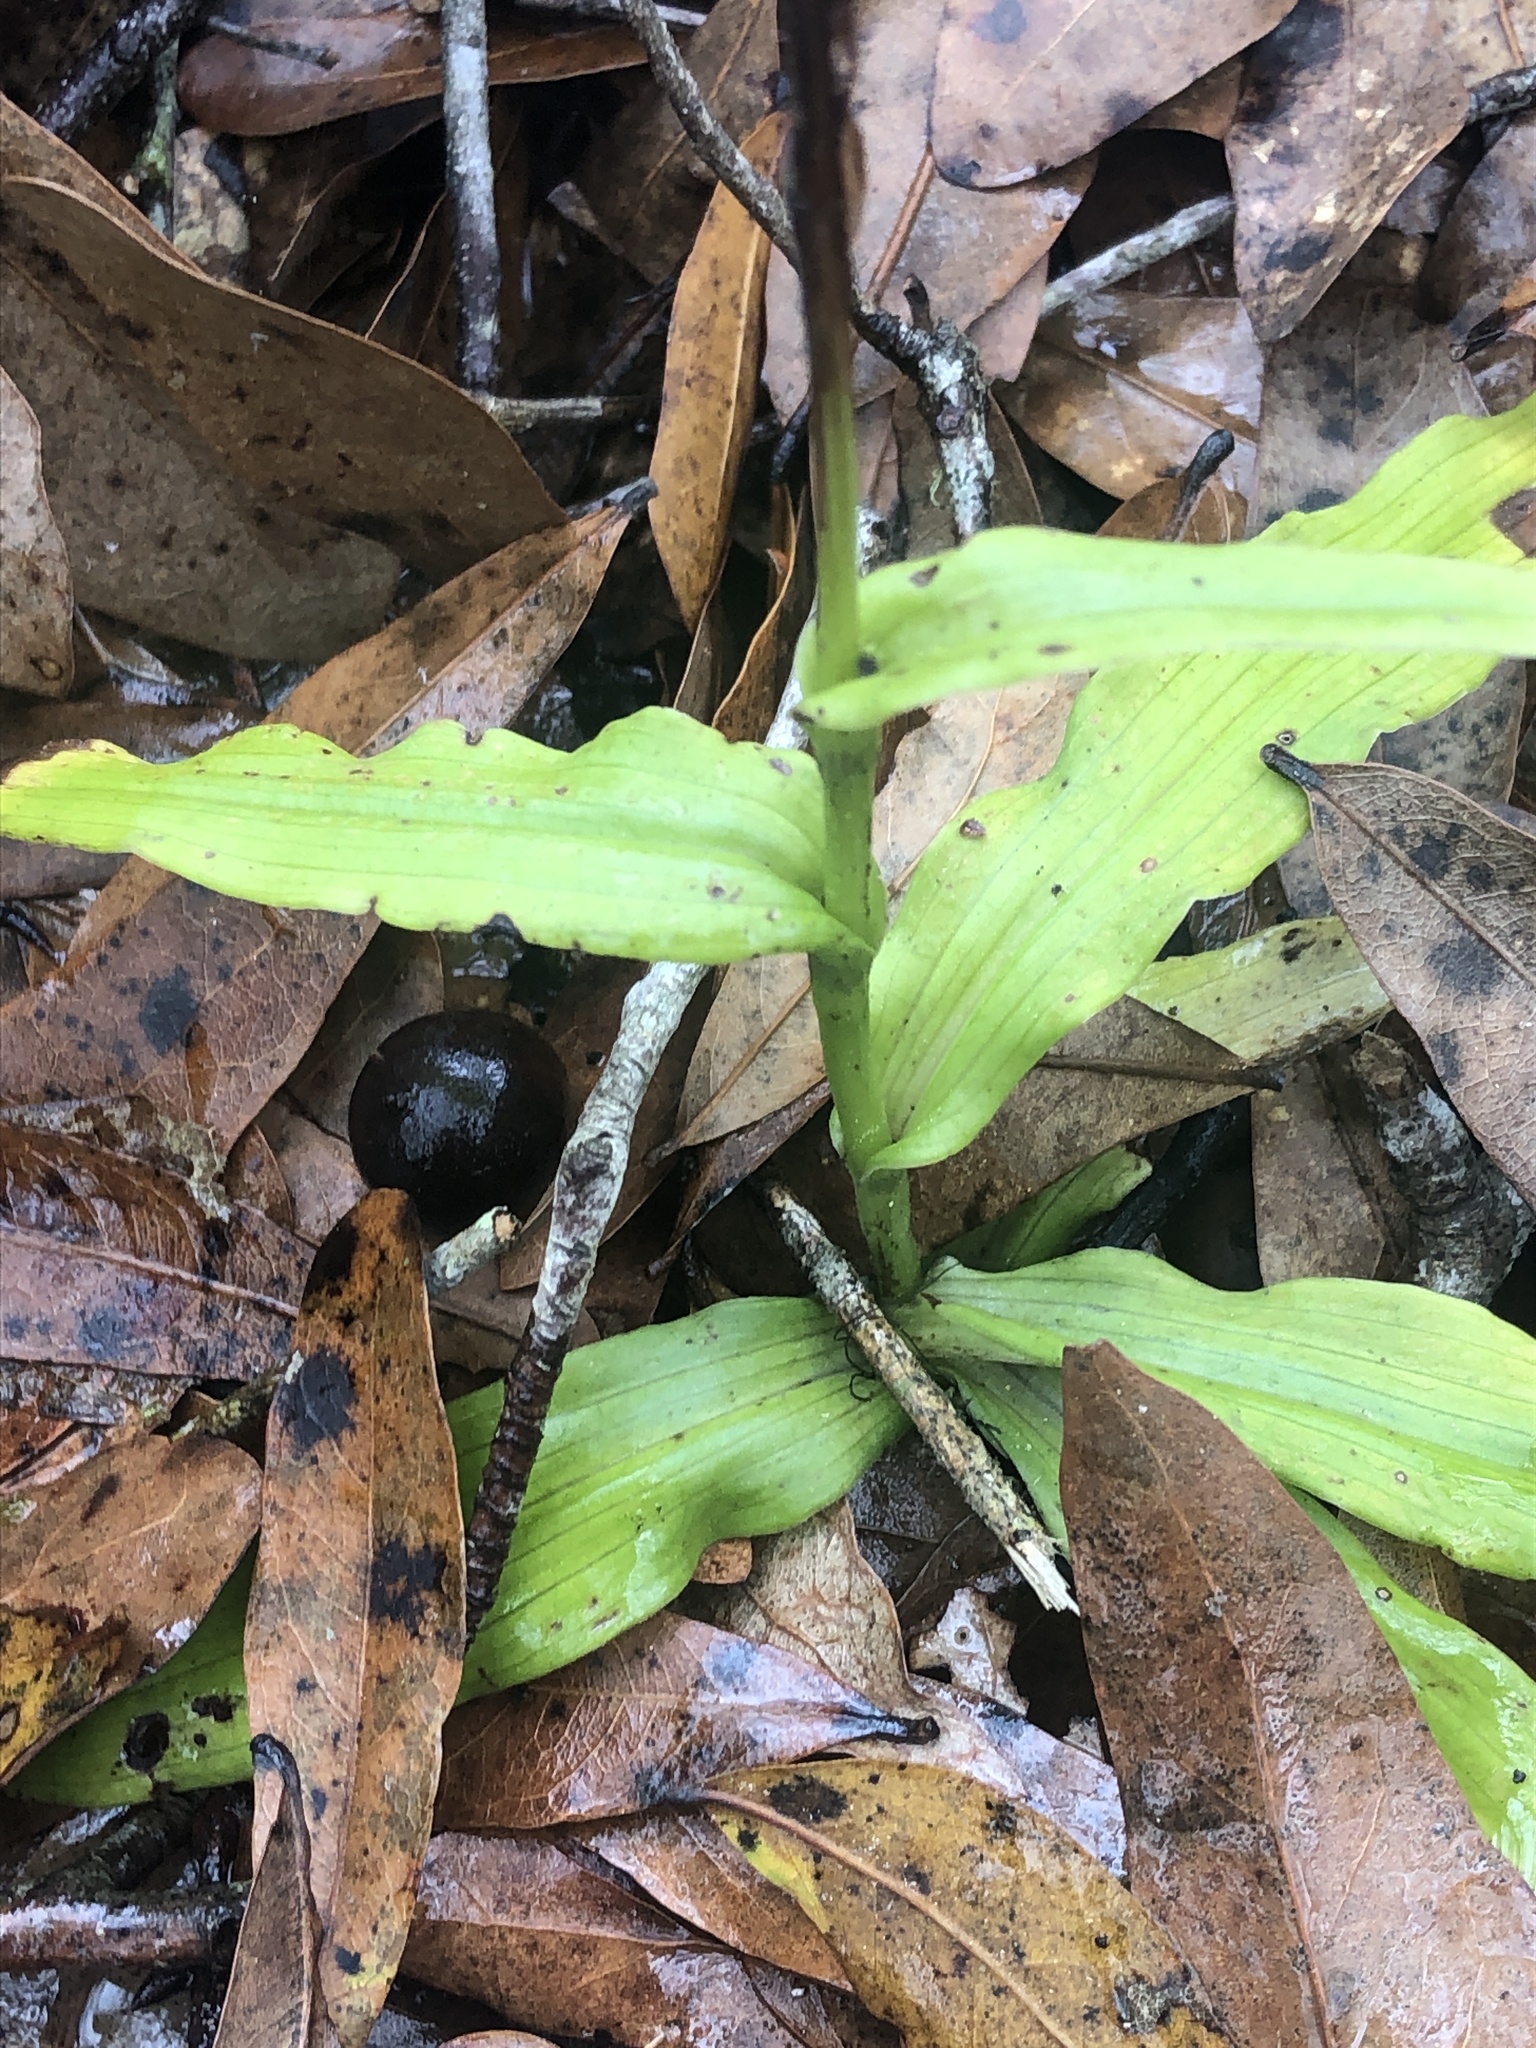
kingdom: Plantae
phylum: Tracheophyta
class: Liliopsida
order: Asparagales
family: Orchidaceae
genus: Habenaria
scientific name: Habenaria floribunda
